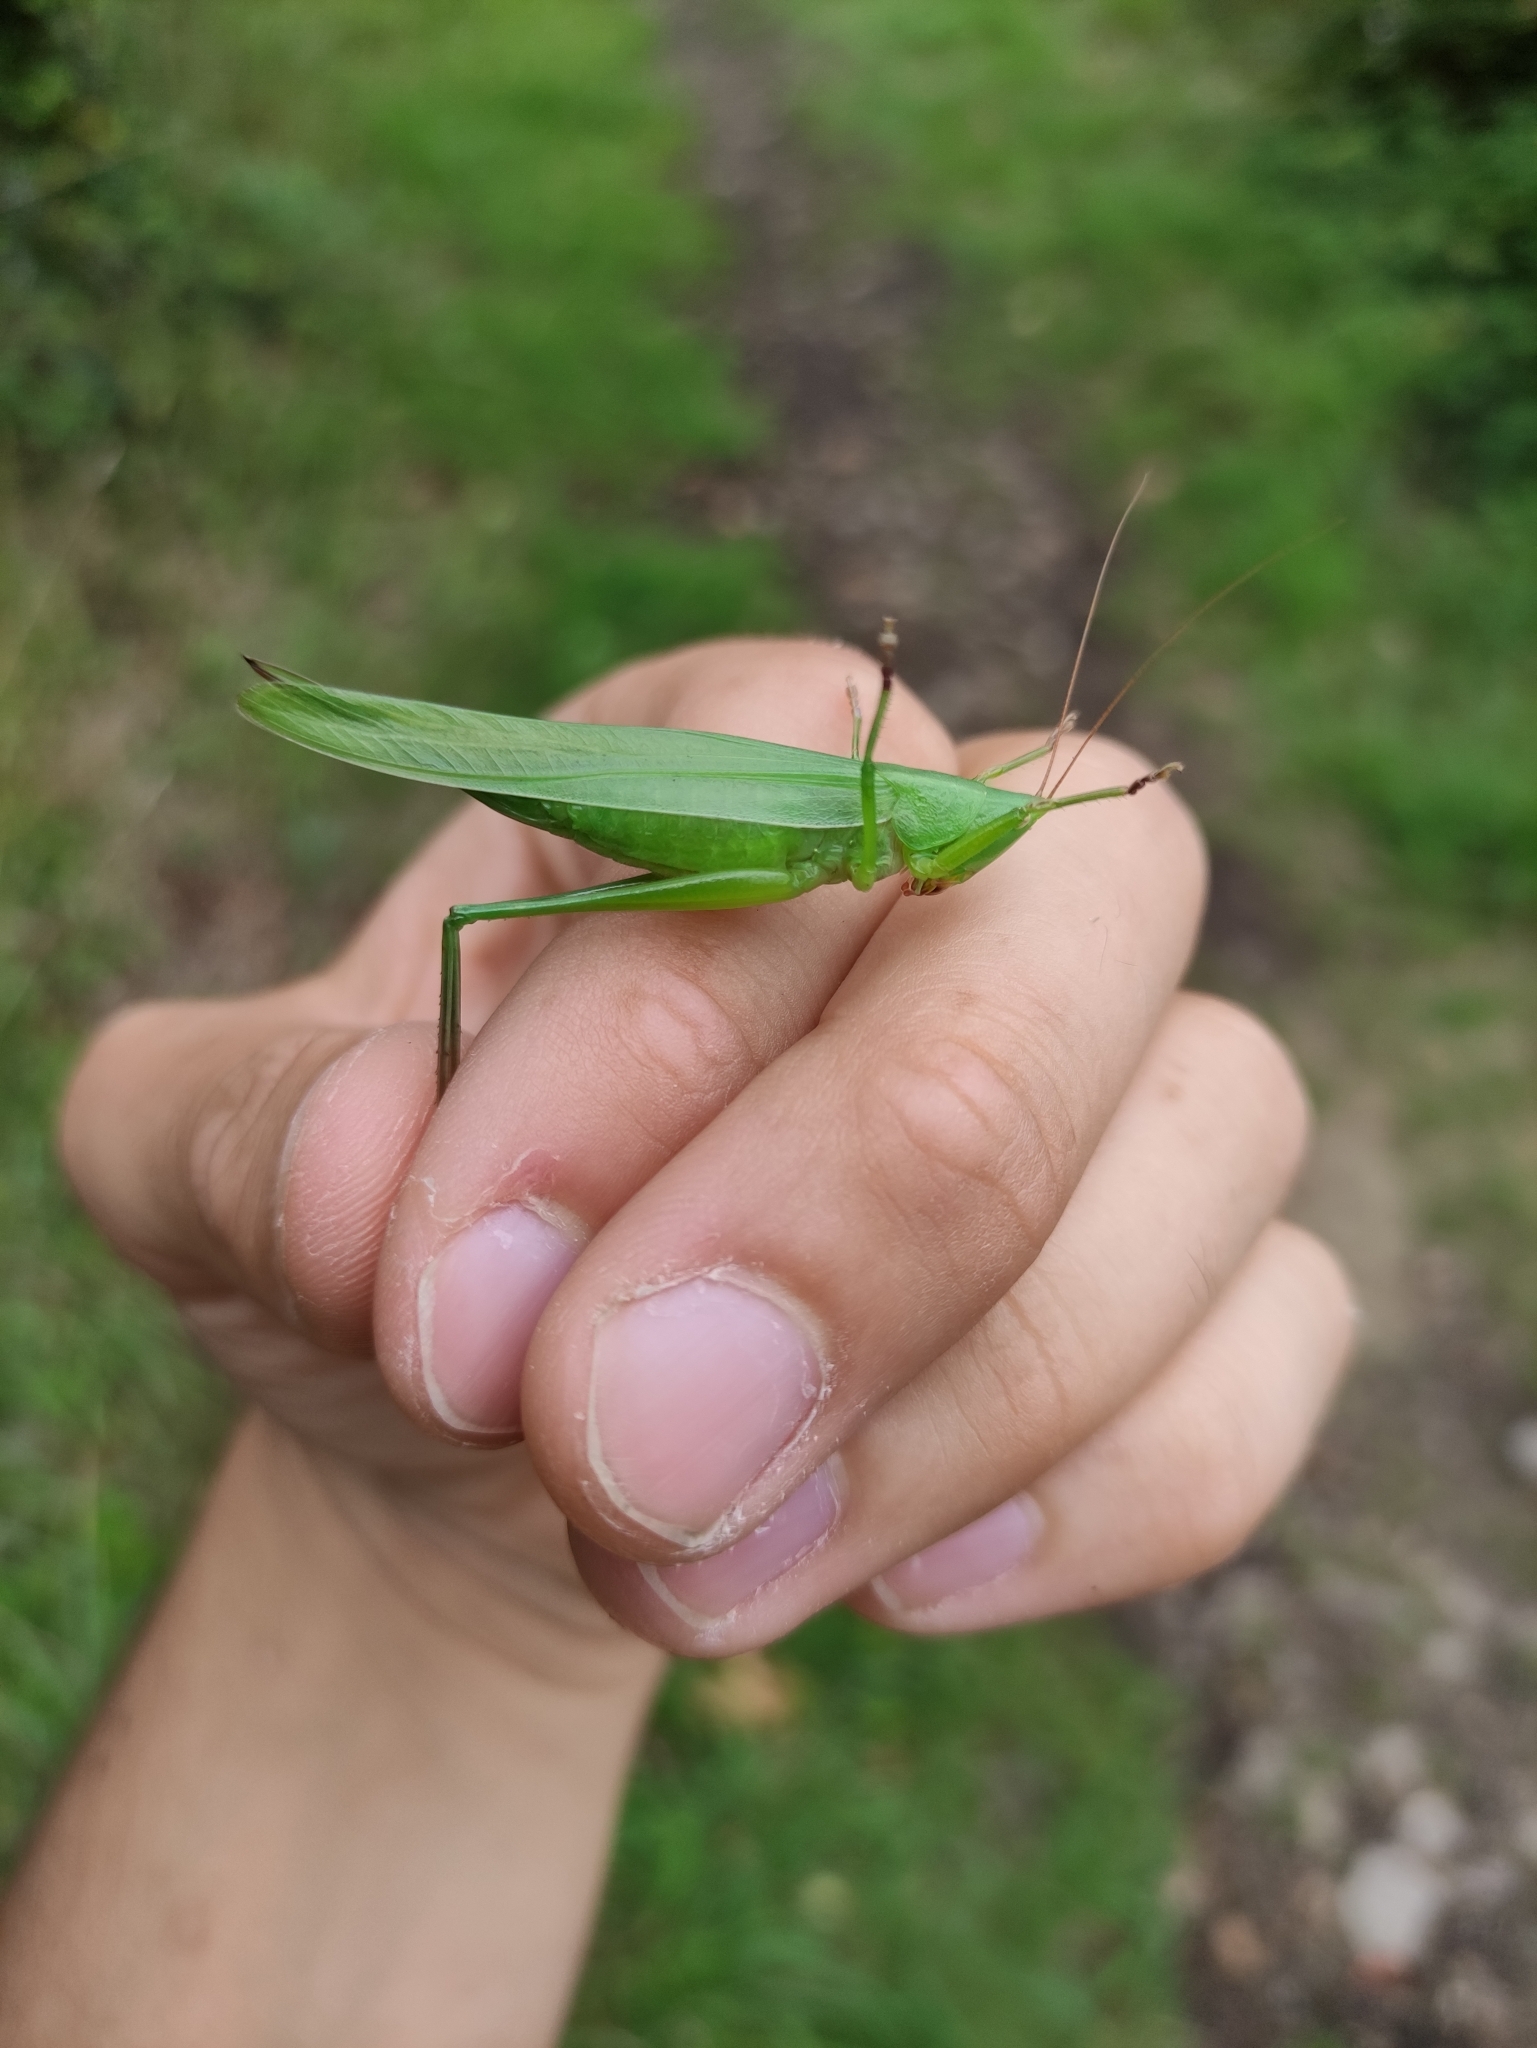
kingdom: Animalia
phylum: Arthropoda
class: Insecta
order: Orthoptera
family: Tettigoniidae
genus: Ruspolia
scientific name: Ruspolia nitidula
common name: Large conehead
